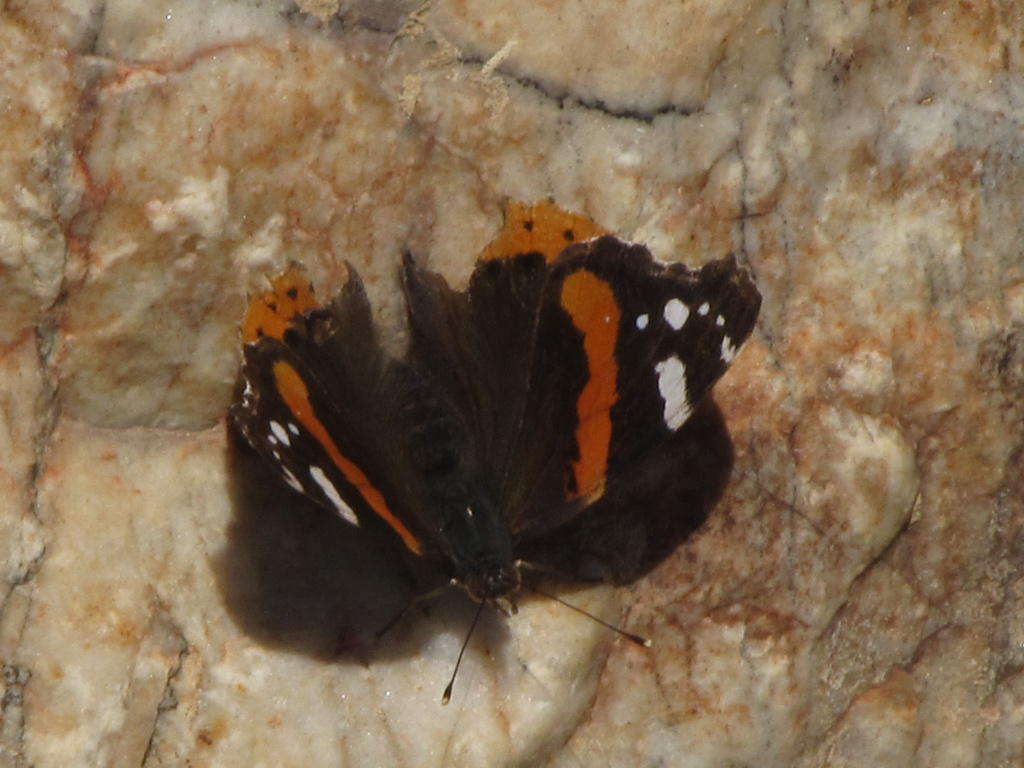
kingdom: Animalia
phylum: Arthropoda
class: Insecta
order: Lepidoptera
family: Nymphalidae
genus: Vanessa
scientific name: Vanessa atalanta
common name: Red admiral
